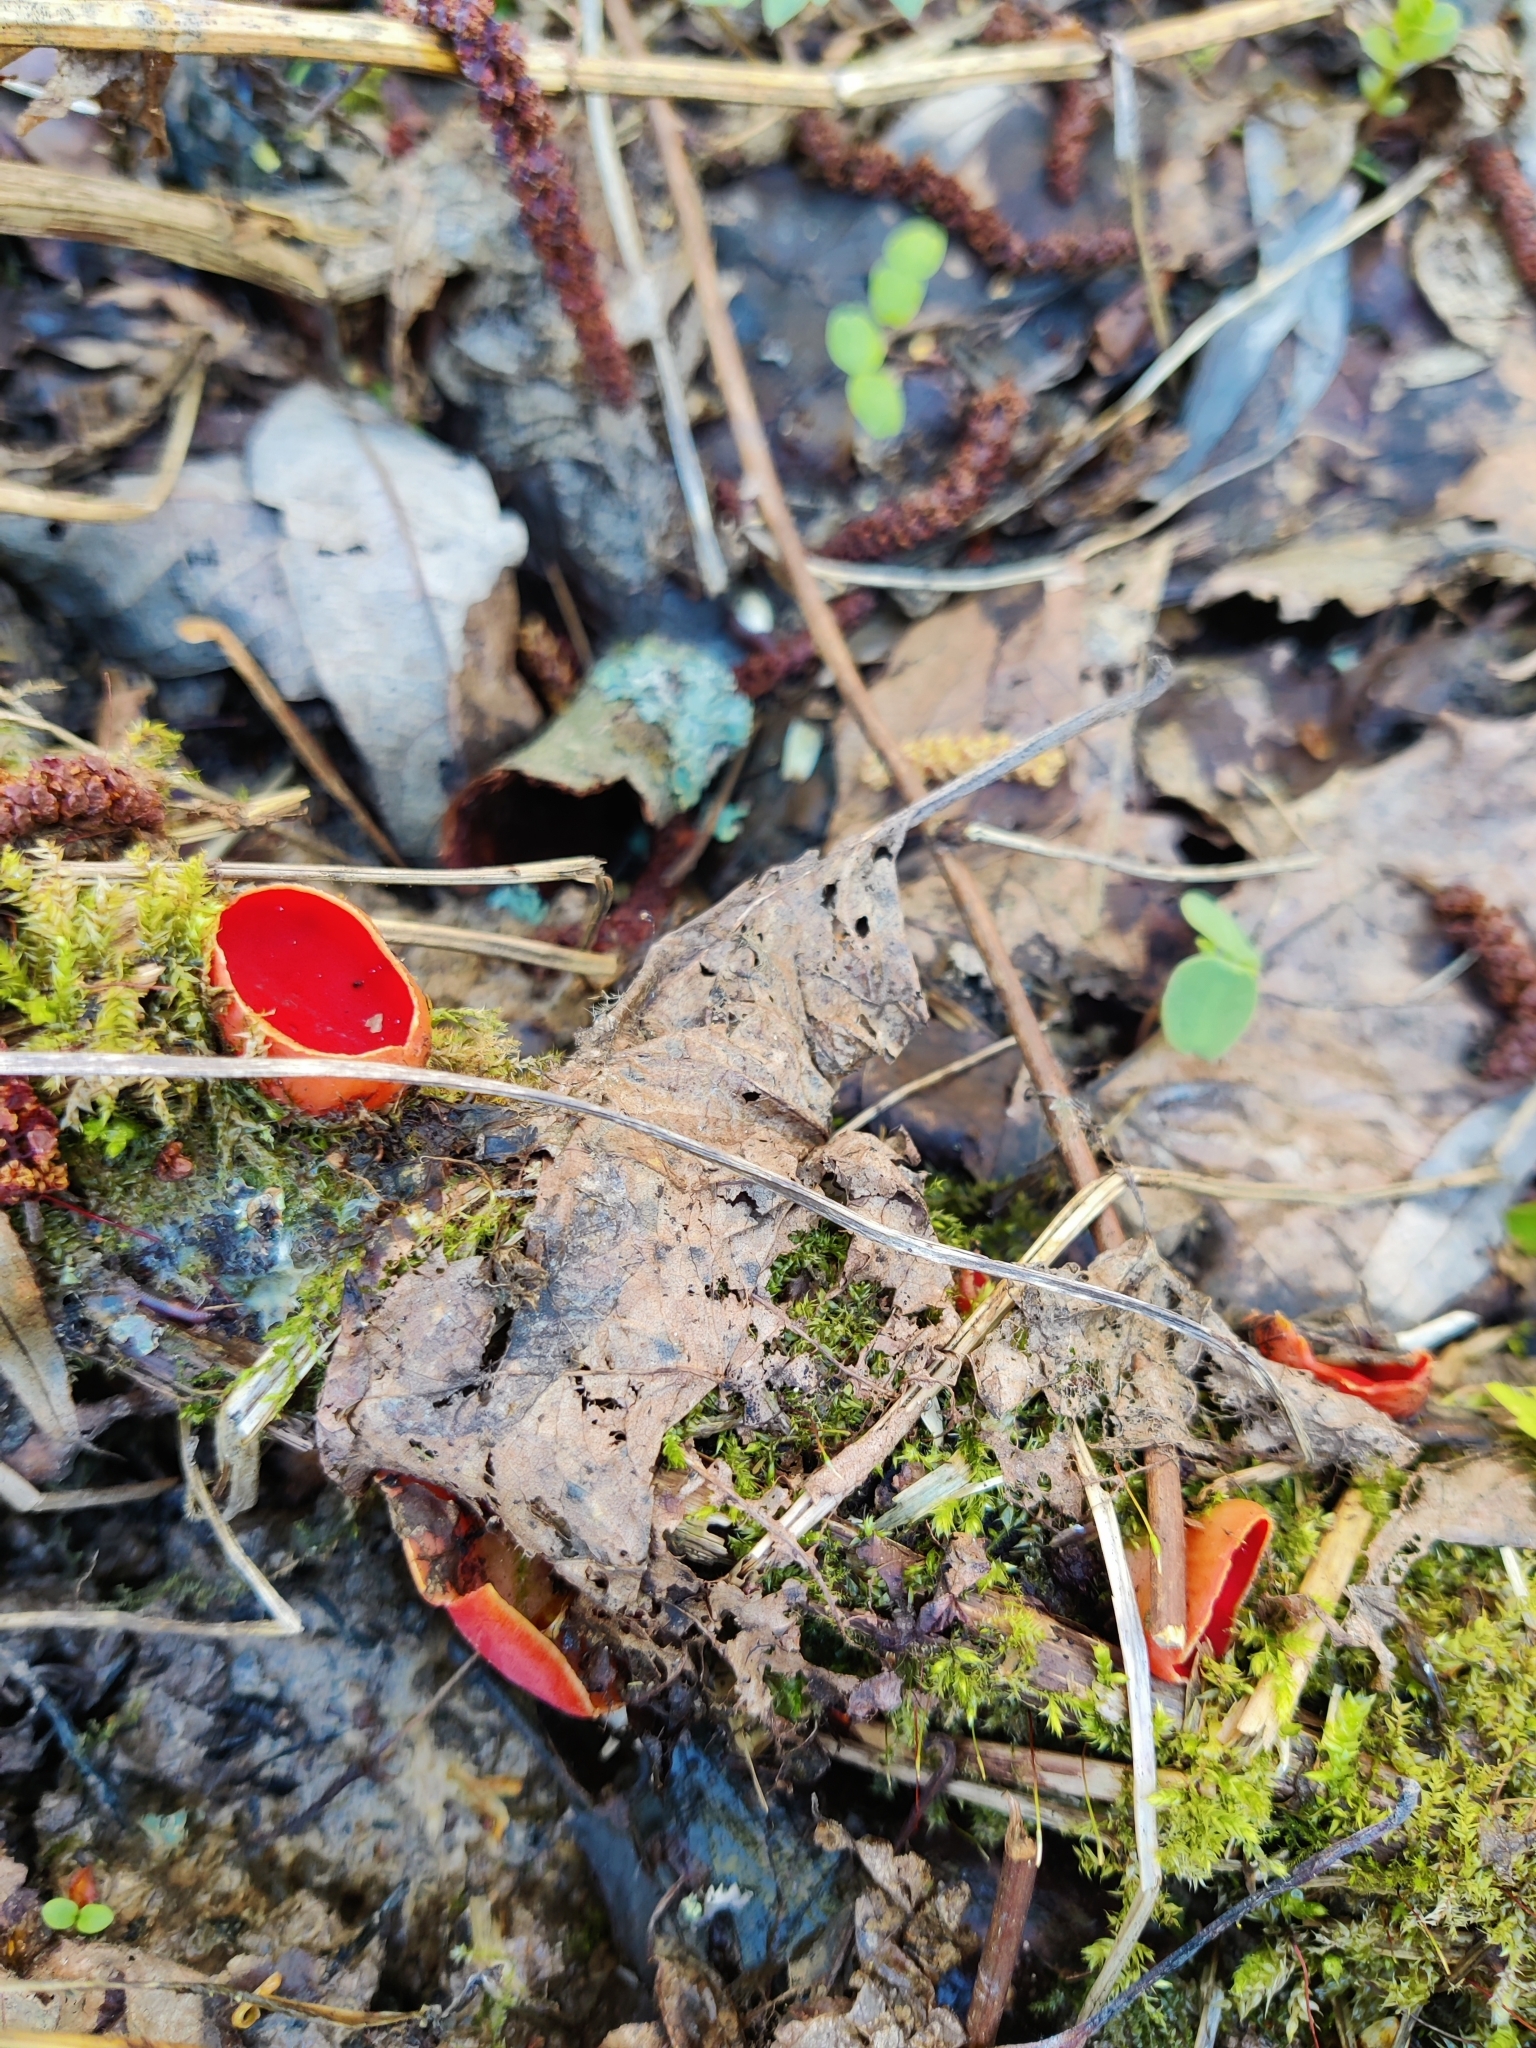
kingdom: Fungi
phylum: Ascomycota
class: Pezizomycetes
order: Pezizales
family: Sarcoscyphaceae
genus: Sarcoscypha
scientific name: Sarcoscypha austriaca
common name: Scarlet elfcup
